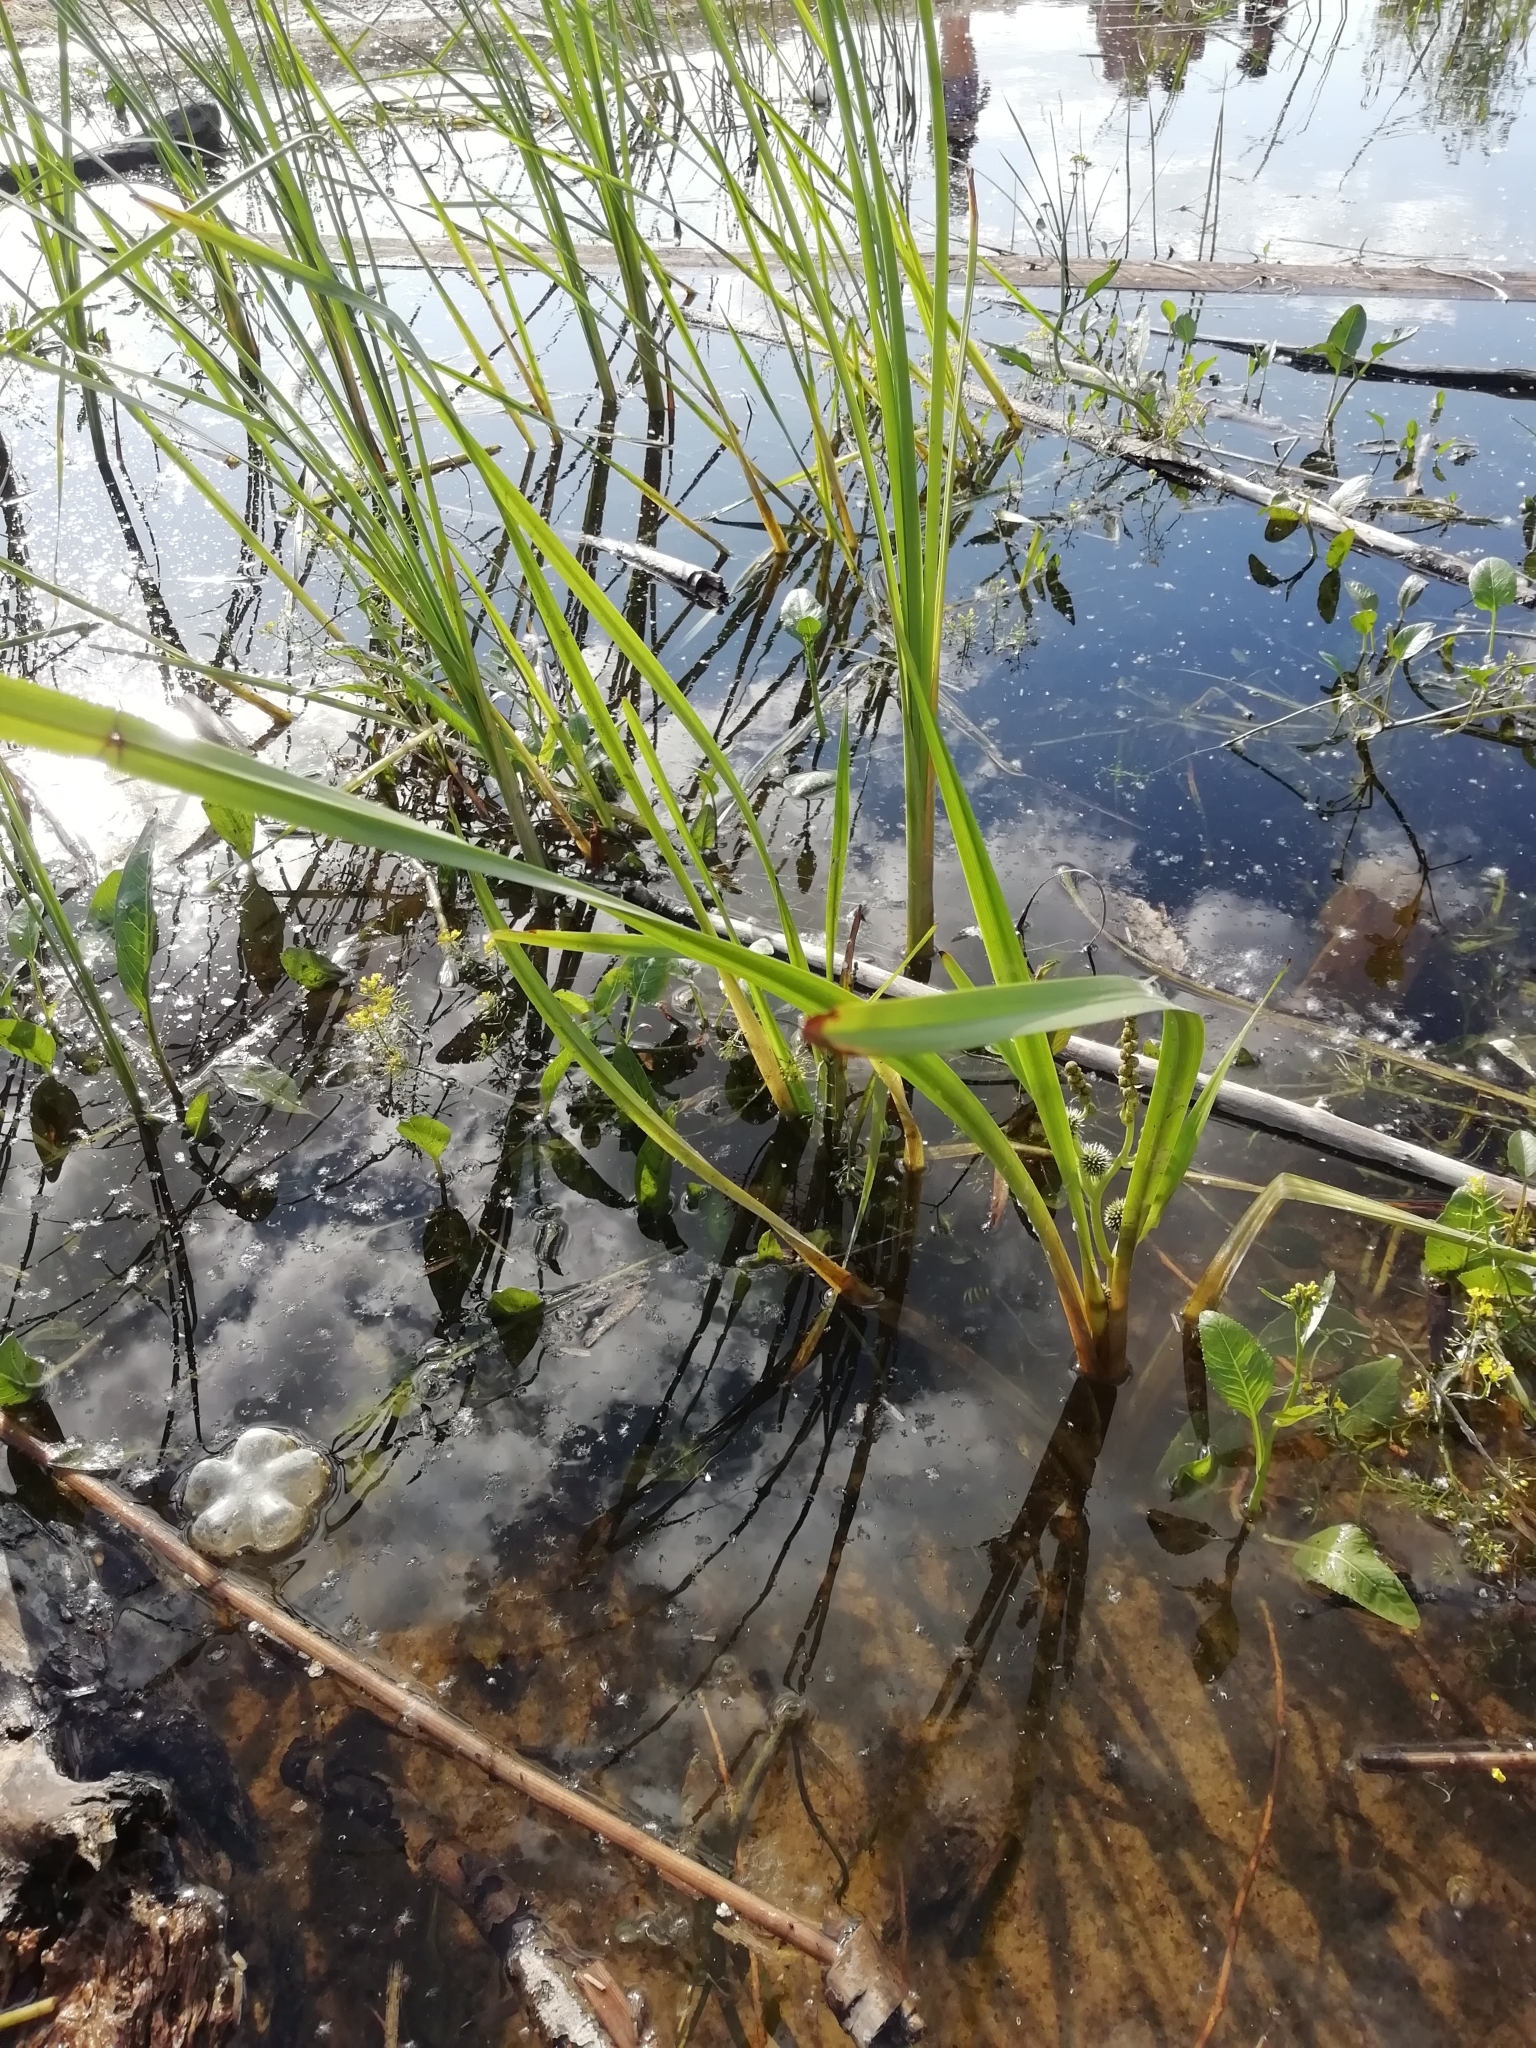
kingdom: Plantae
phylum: Tracheophyta
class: Liliopsida
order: Poales
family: Typhaceae
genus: Sparganium
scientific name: Sparganium erectum
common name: Branched bur-reed
